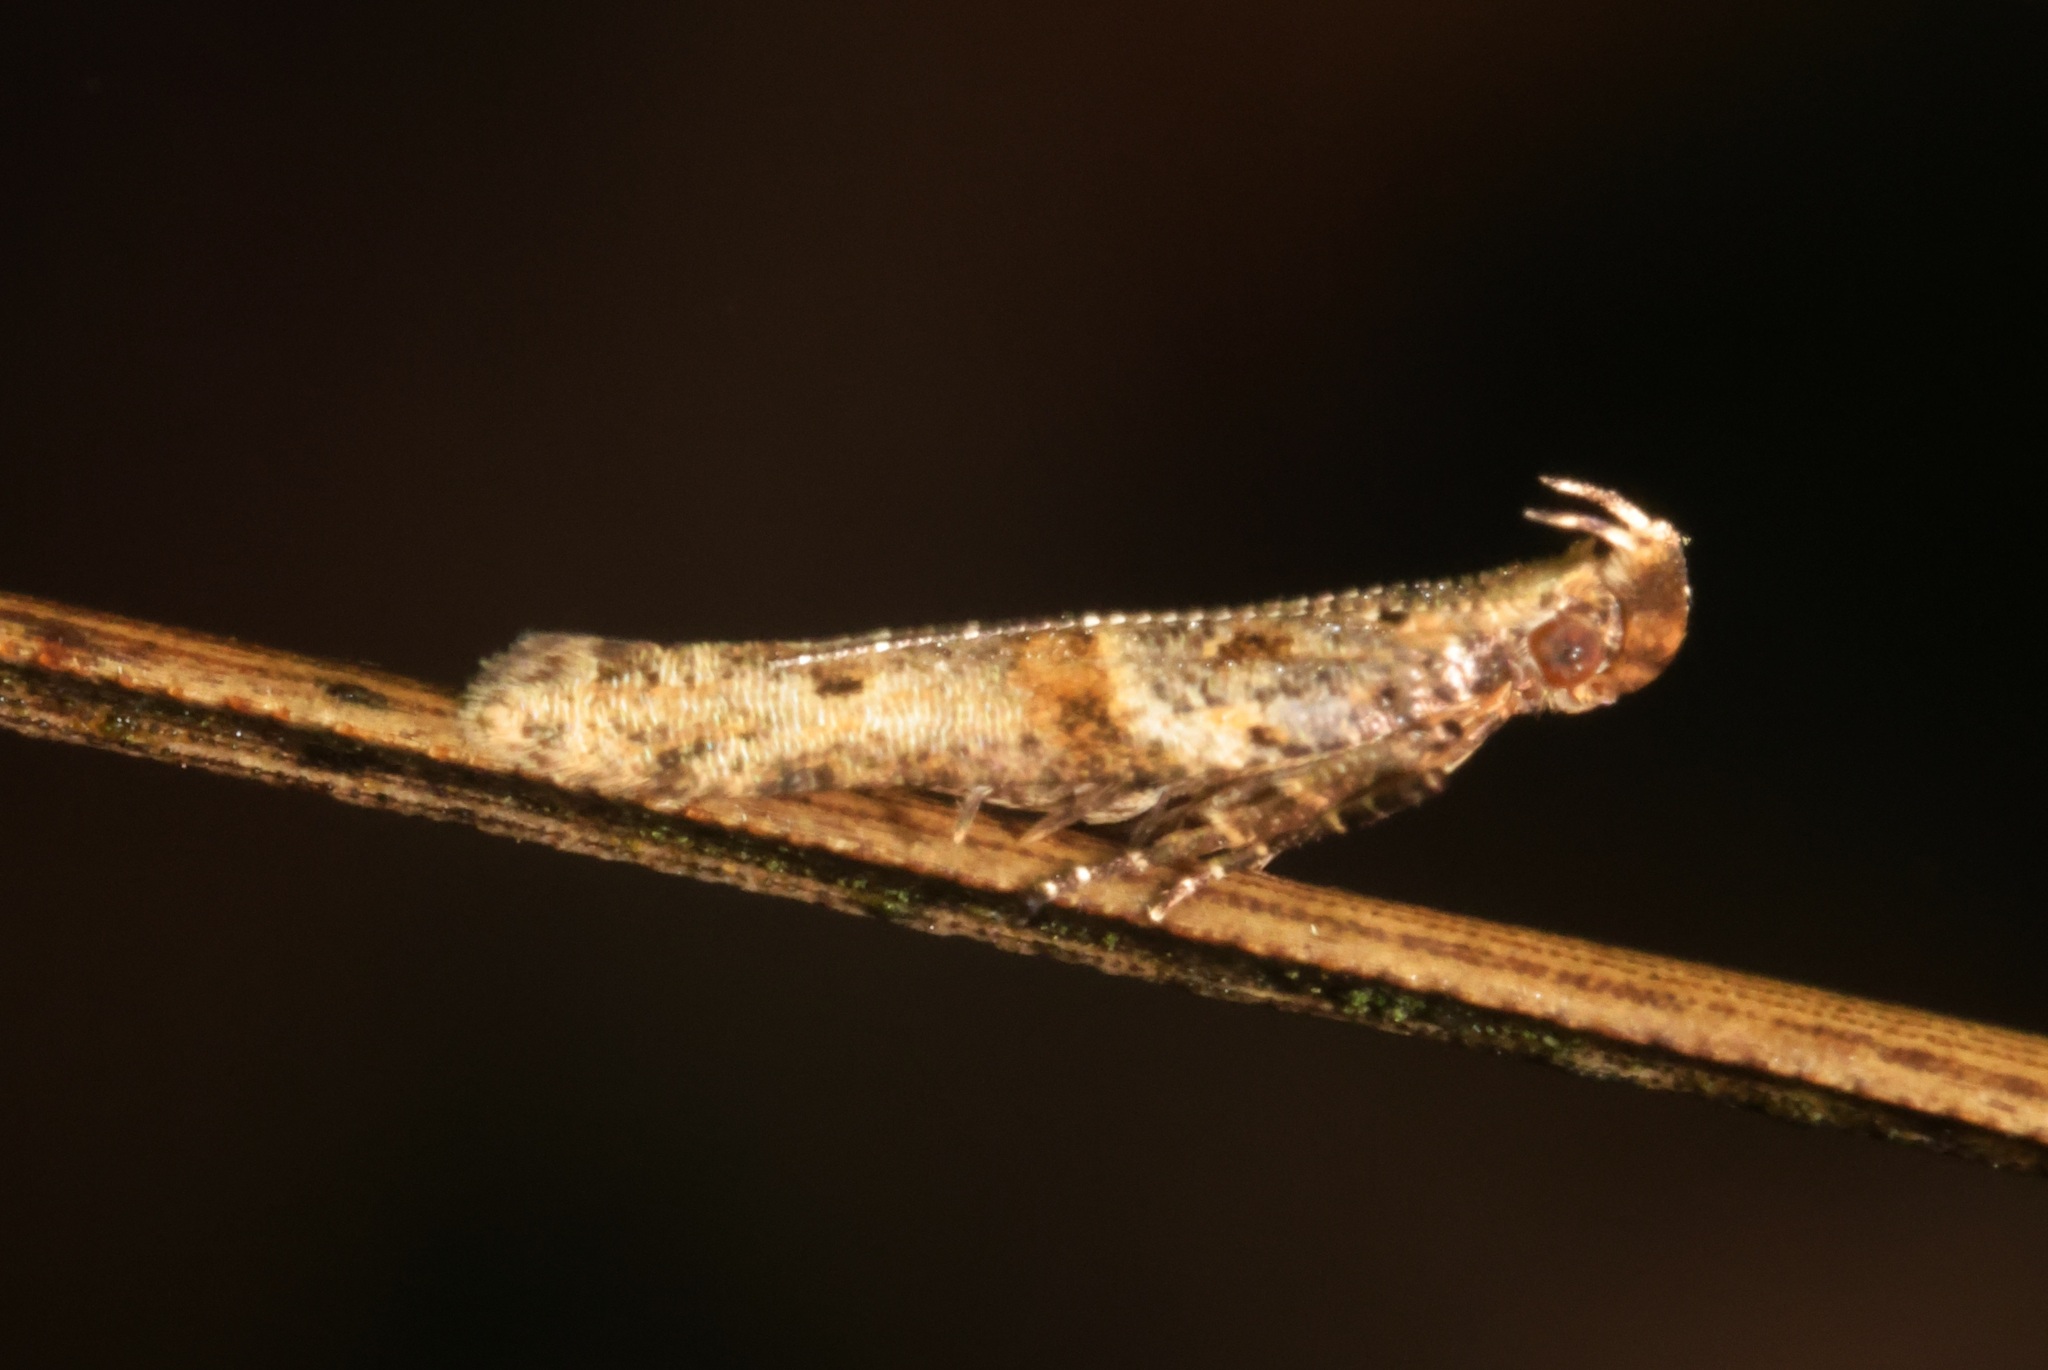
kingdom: Animalia
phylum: Arthropoda
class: Insecta
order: Lepidoptera
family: Gelechiidae
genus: Deltophora
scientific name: Deltophora polliniferens
